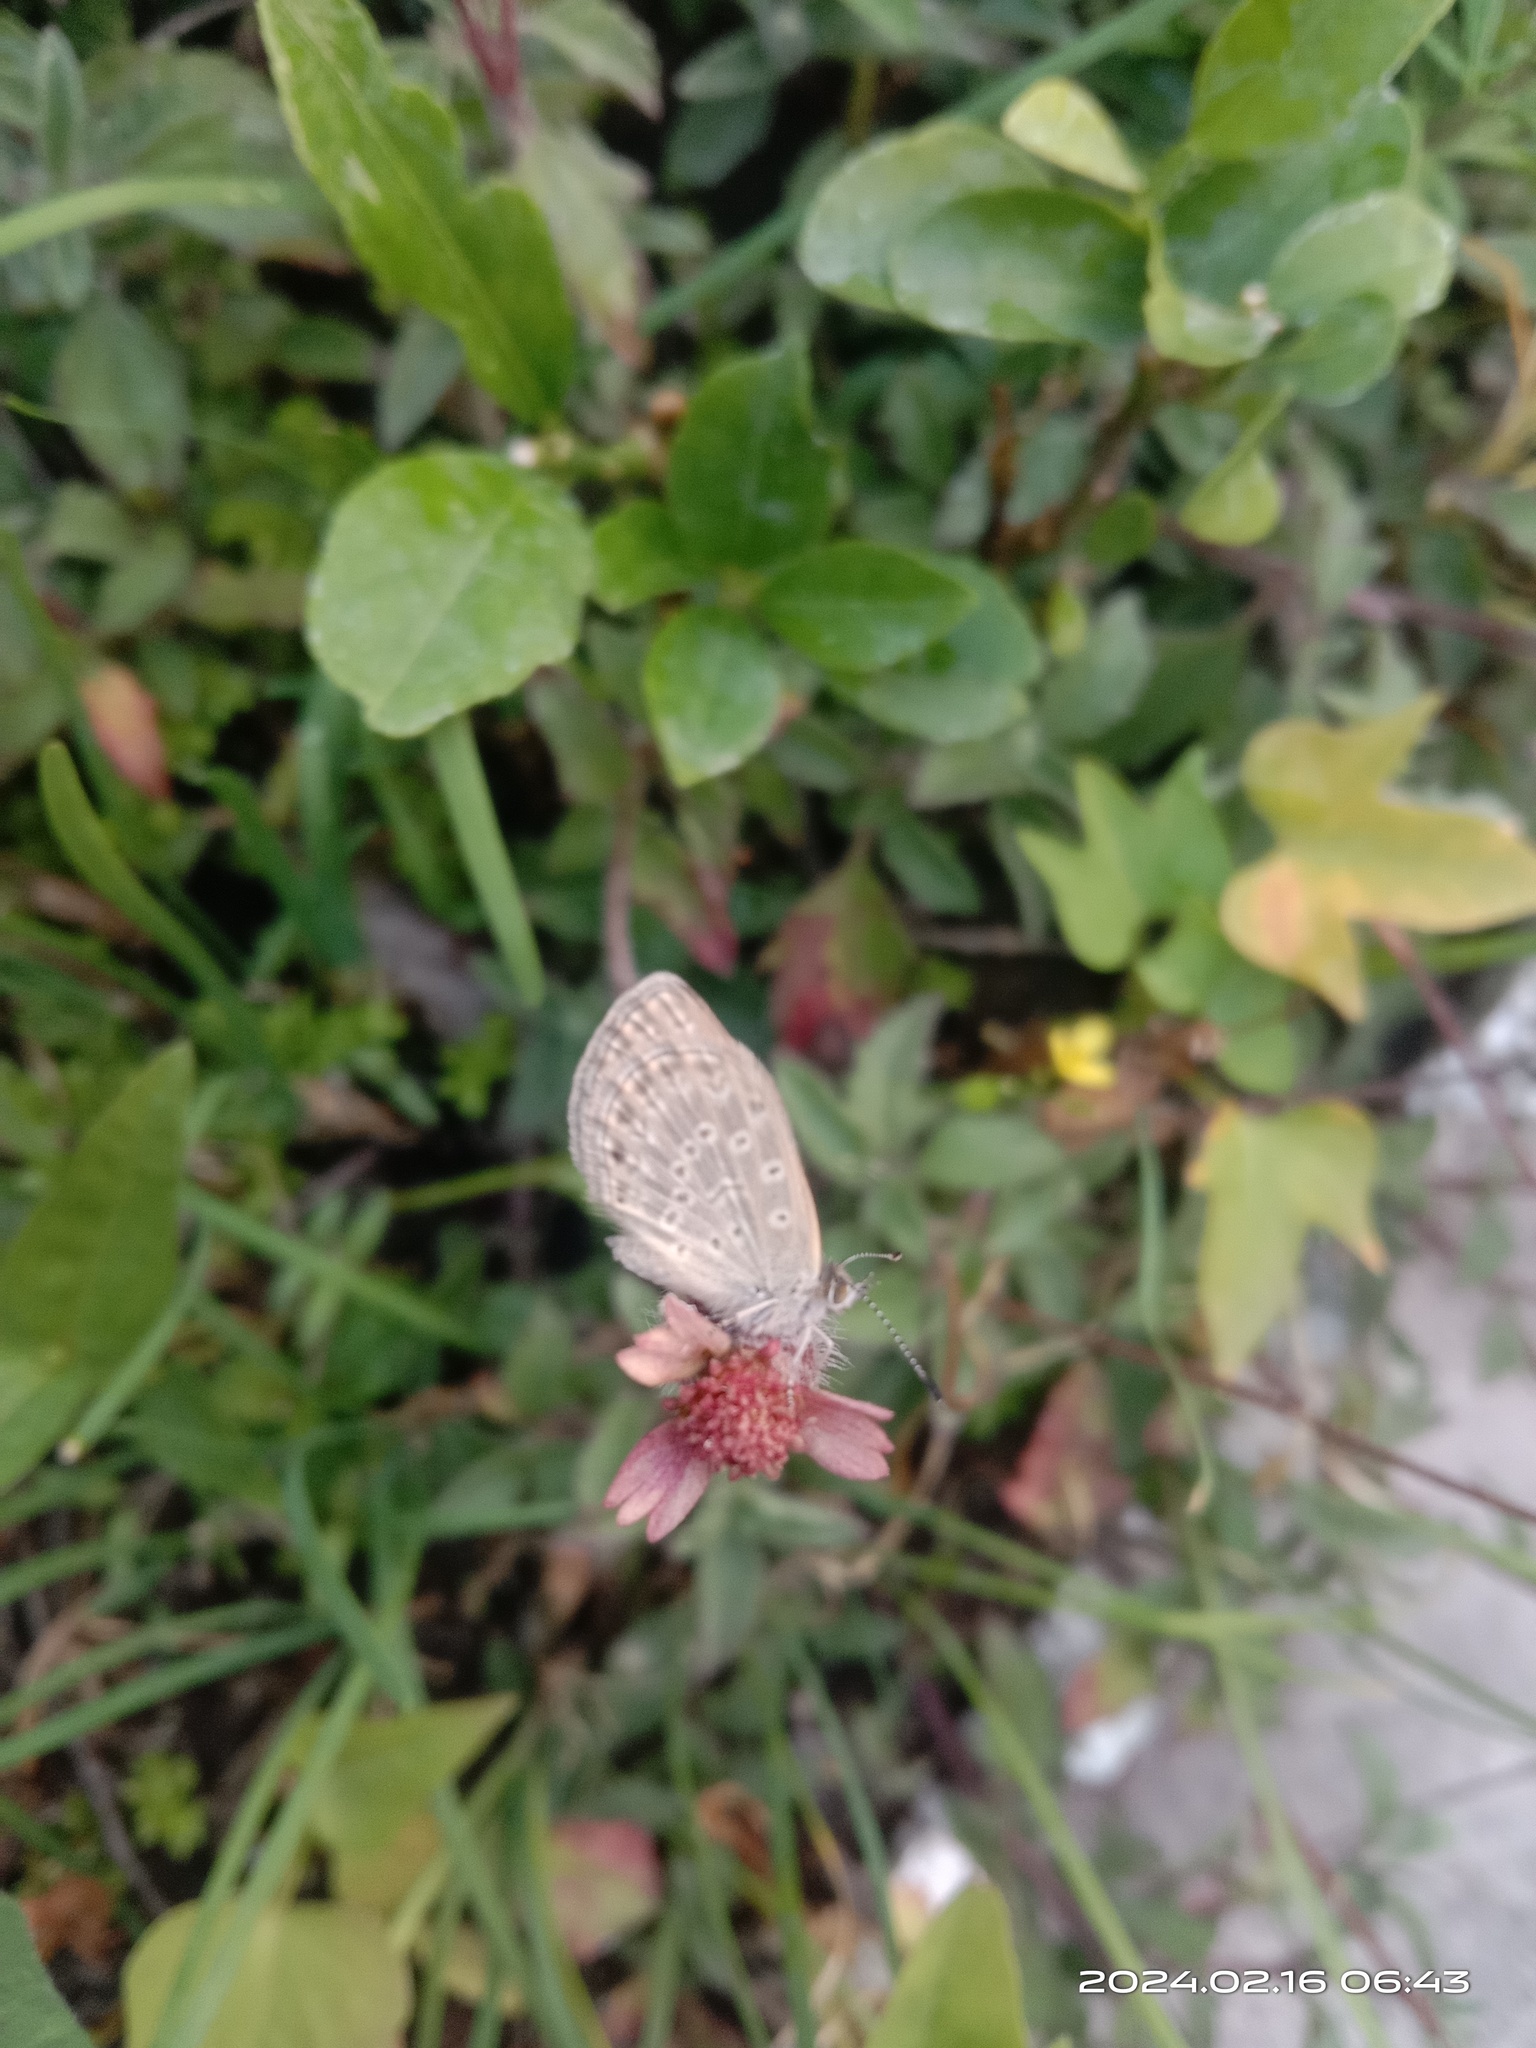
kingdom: Animalia
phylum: Arthropoda
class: Insecta
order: Lepidoptera
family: Lycaenidae
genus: Pseudozizeeria
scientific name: Pseudozizeeria maha
